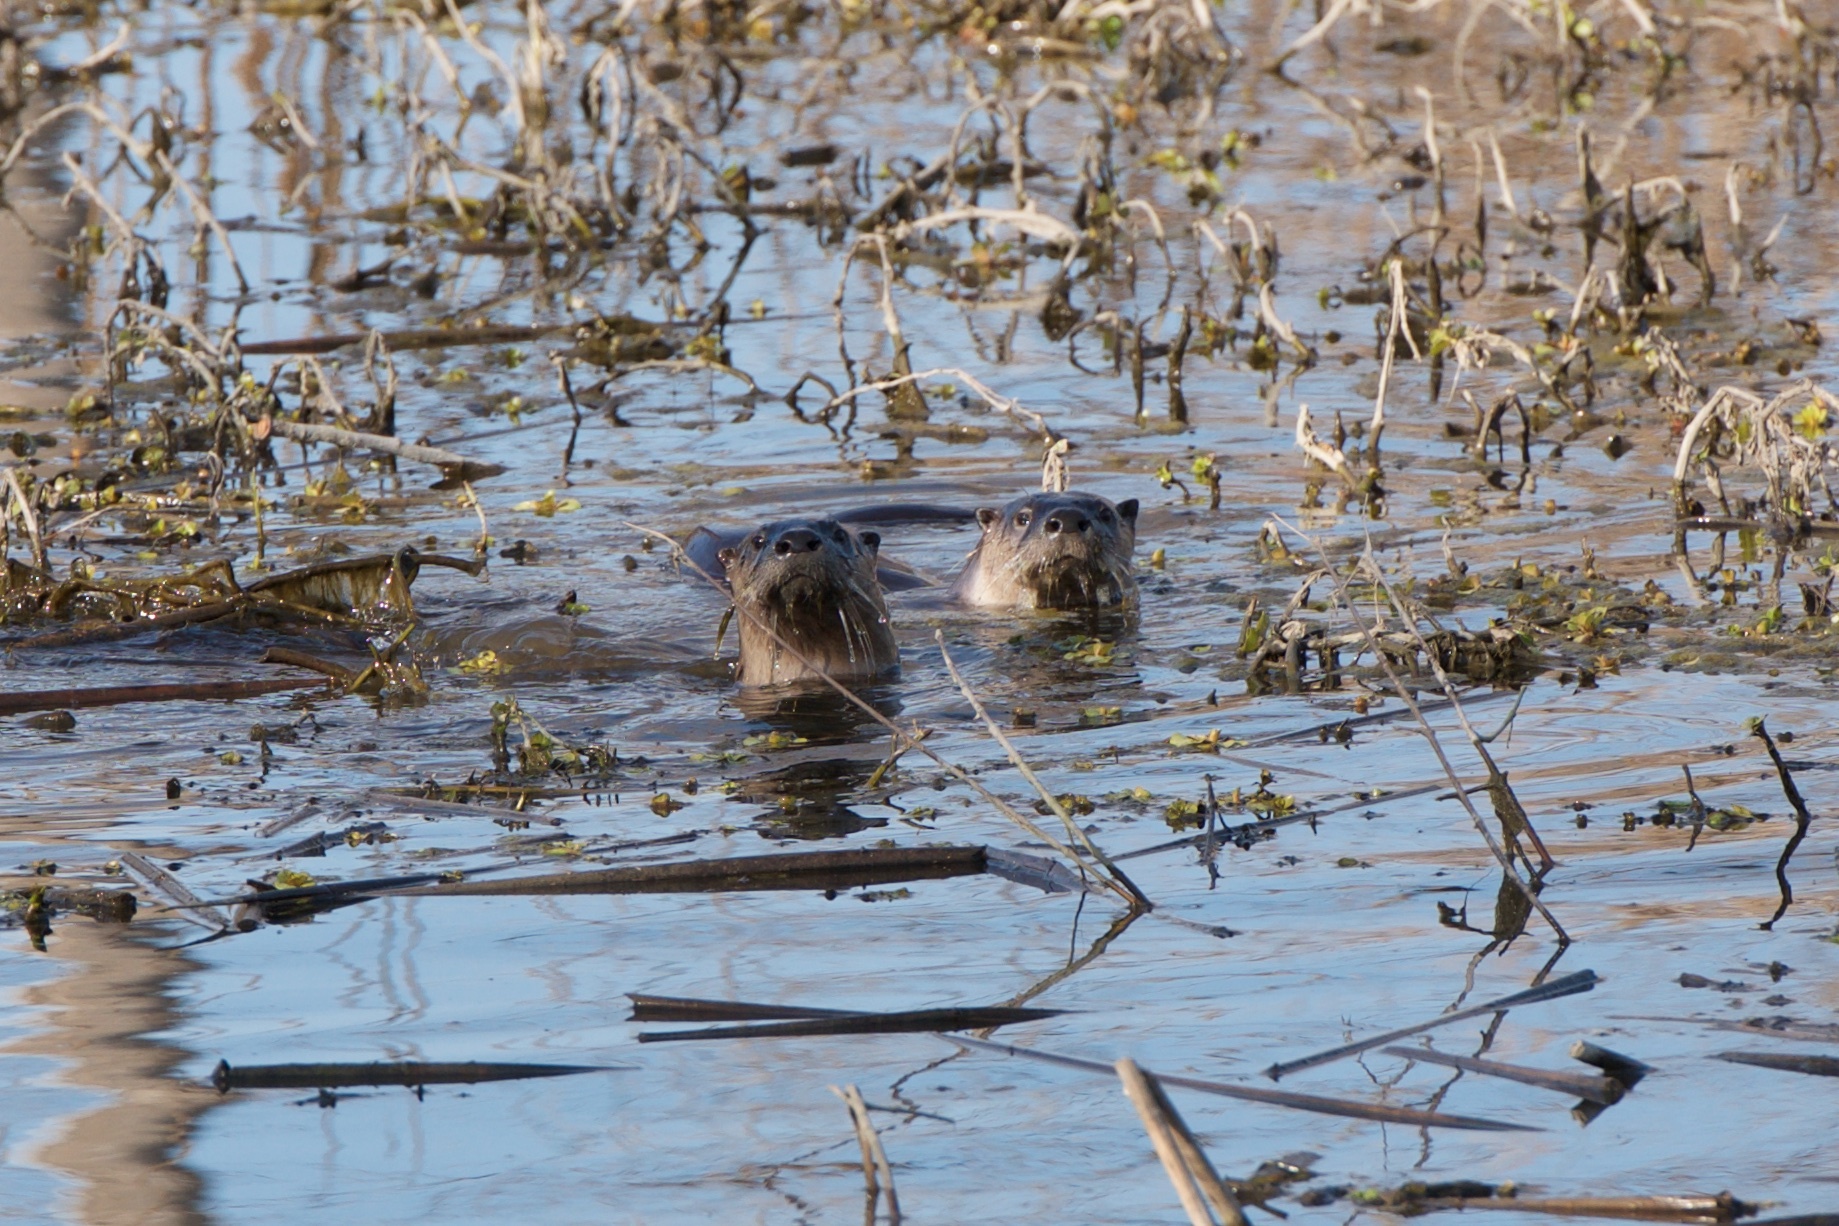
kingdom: Animalia
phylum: Chordata
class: Mammalia
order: Carnivora
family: Mustelidae
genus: Lontra
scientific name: Lontra canadensis
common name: North american river otter
